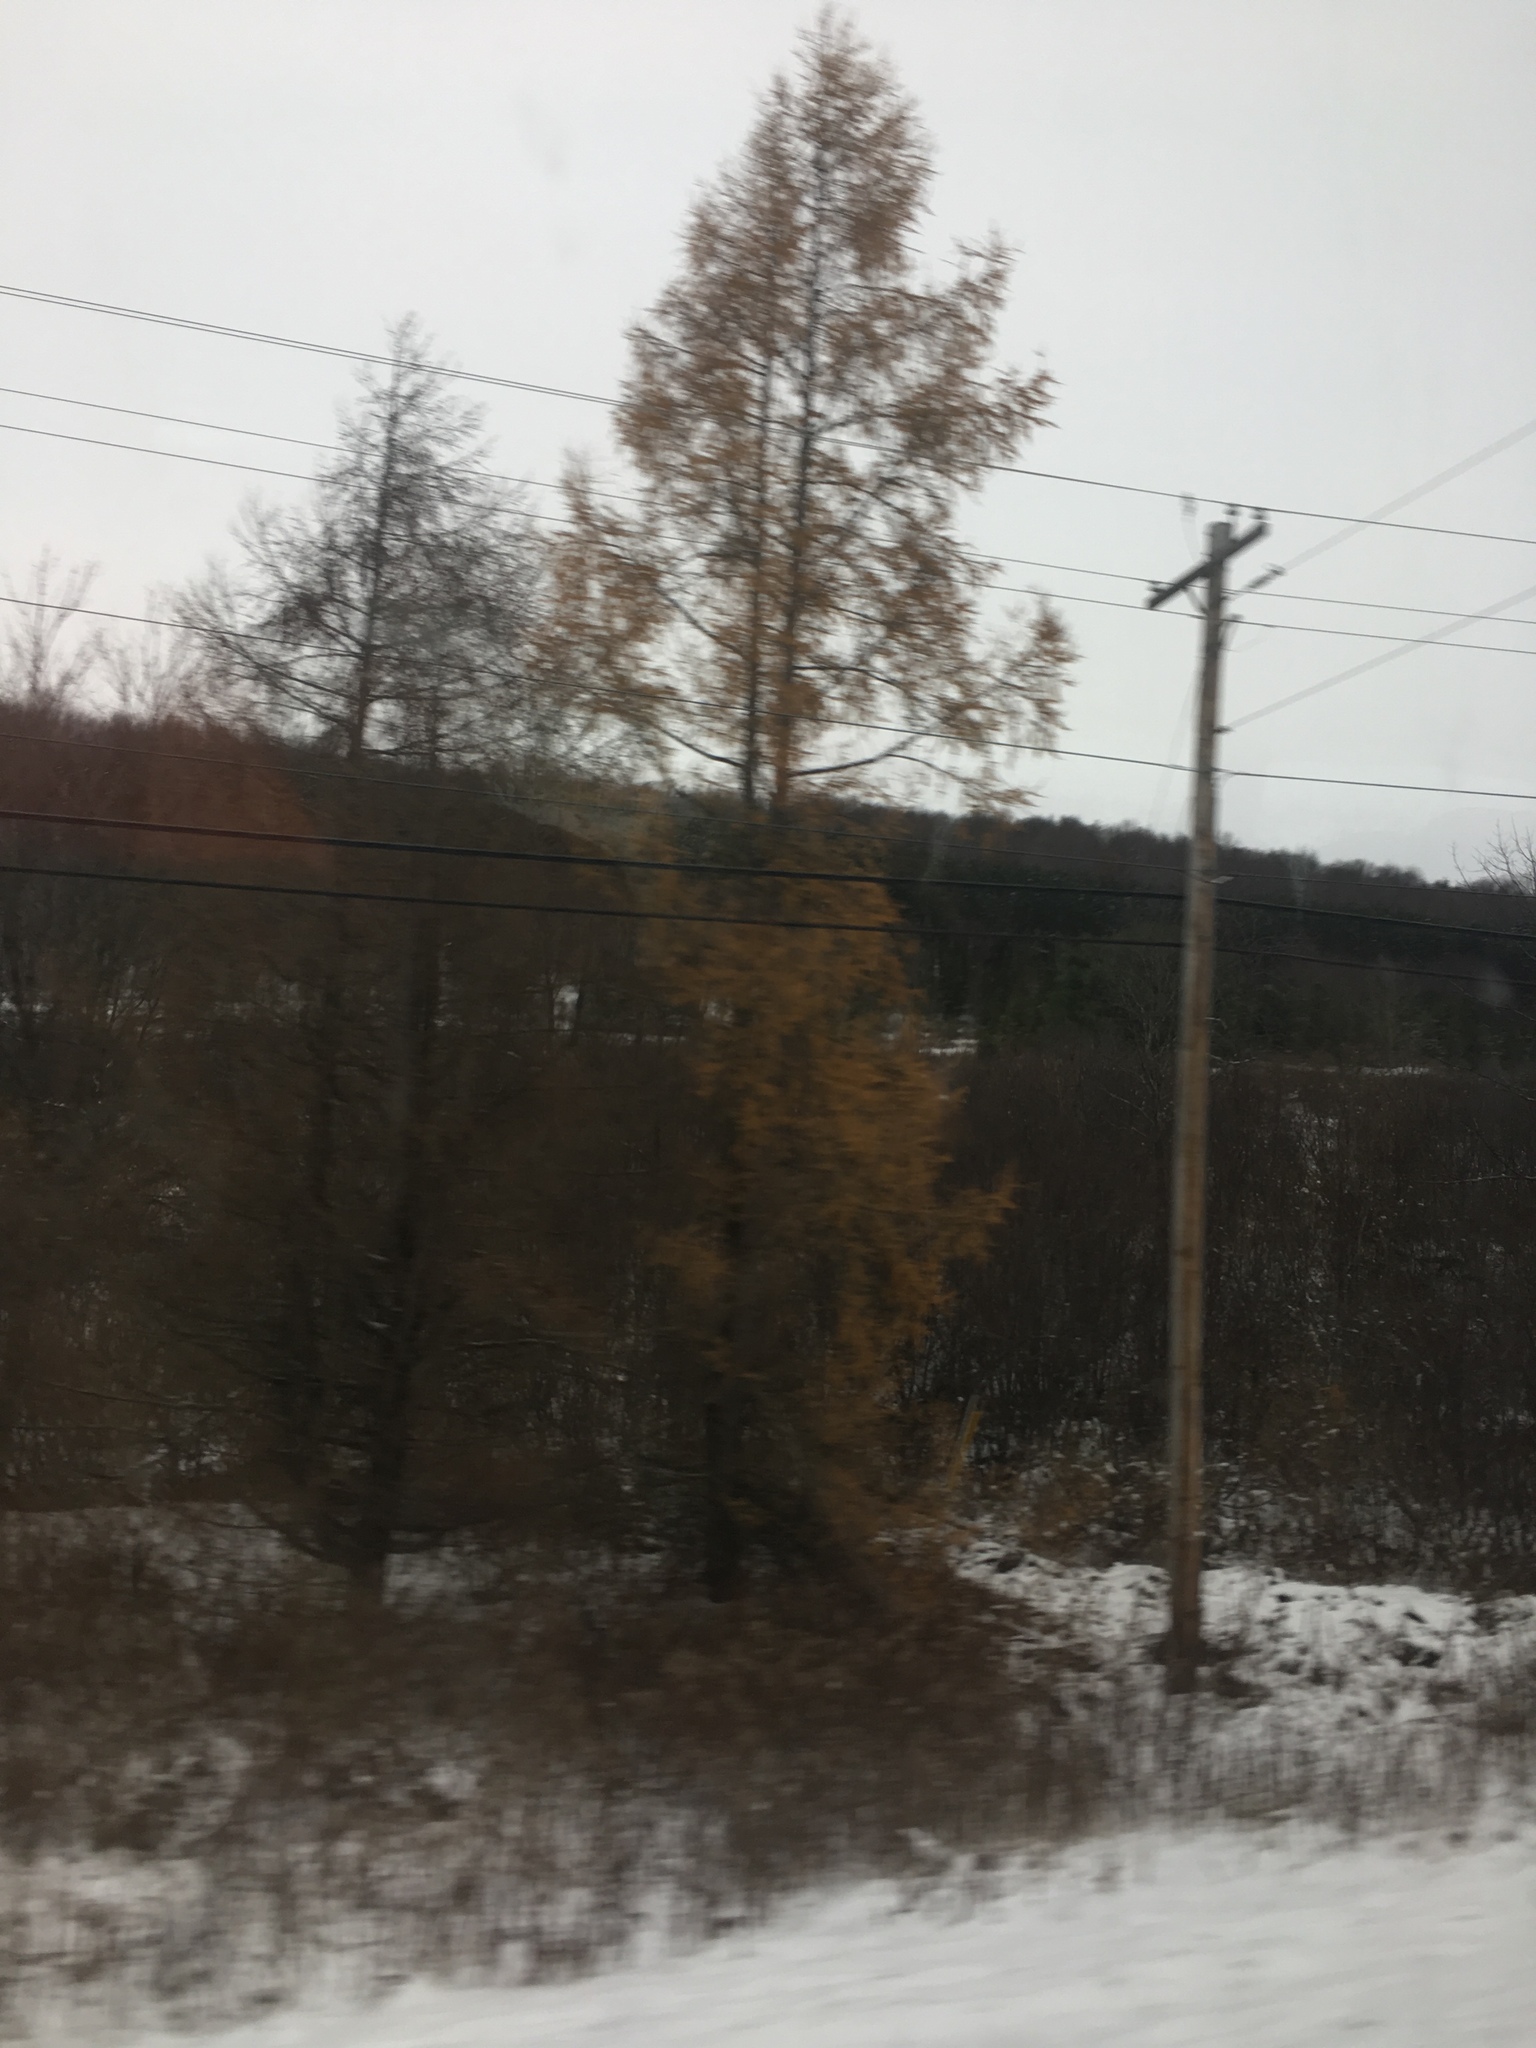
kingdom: Plantae
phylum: Tracheophyta
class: Pinopsida
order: Pinales
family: Pinaceae
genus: Larix
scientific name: Larix laricina
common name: American larch
